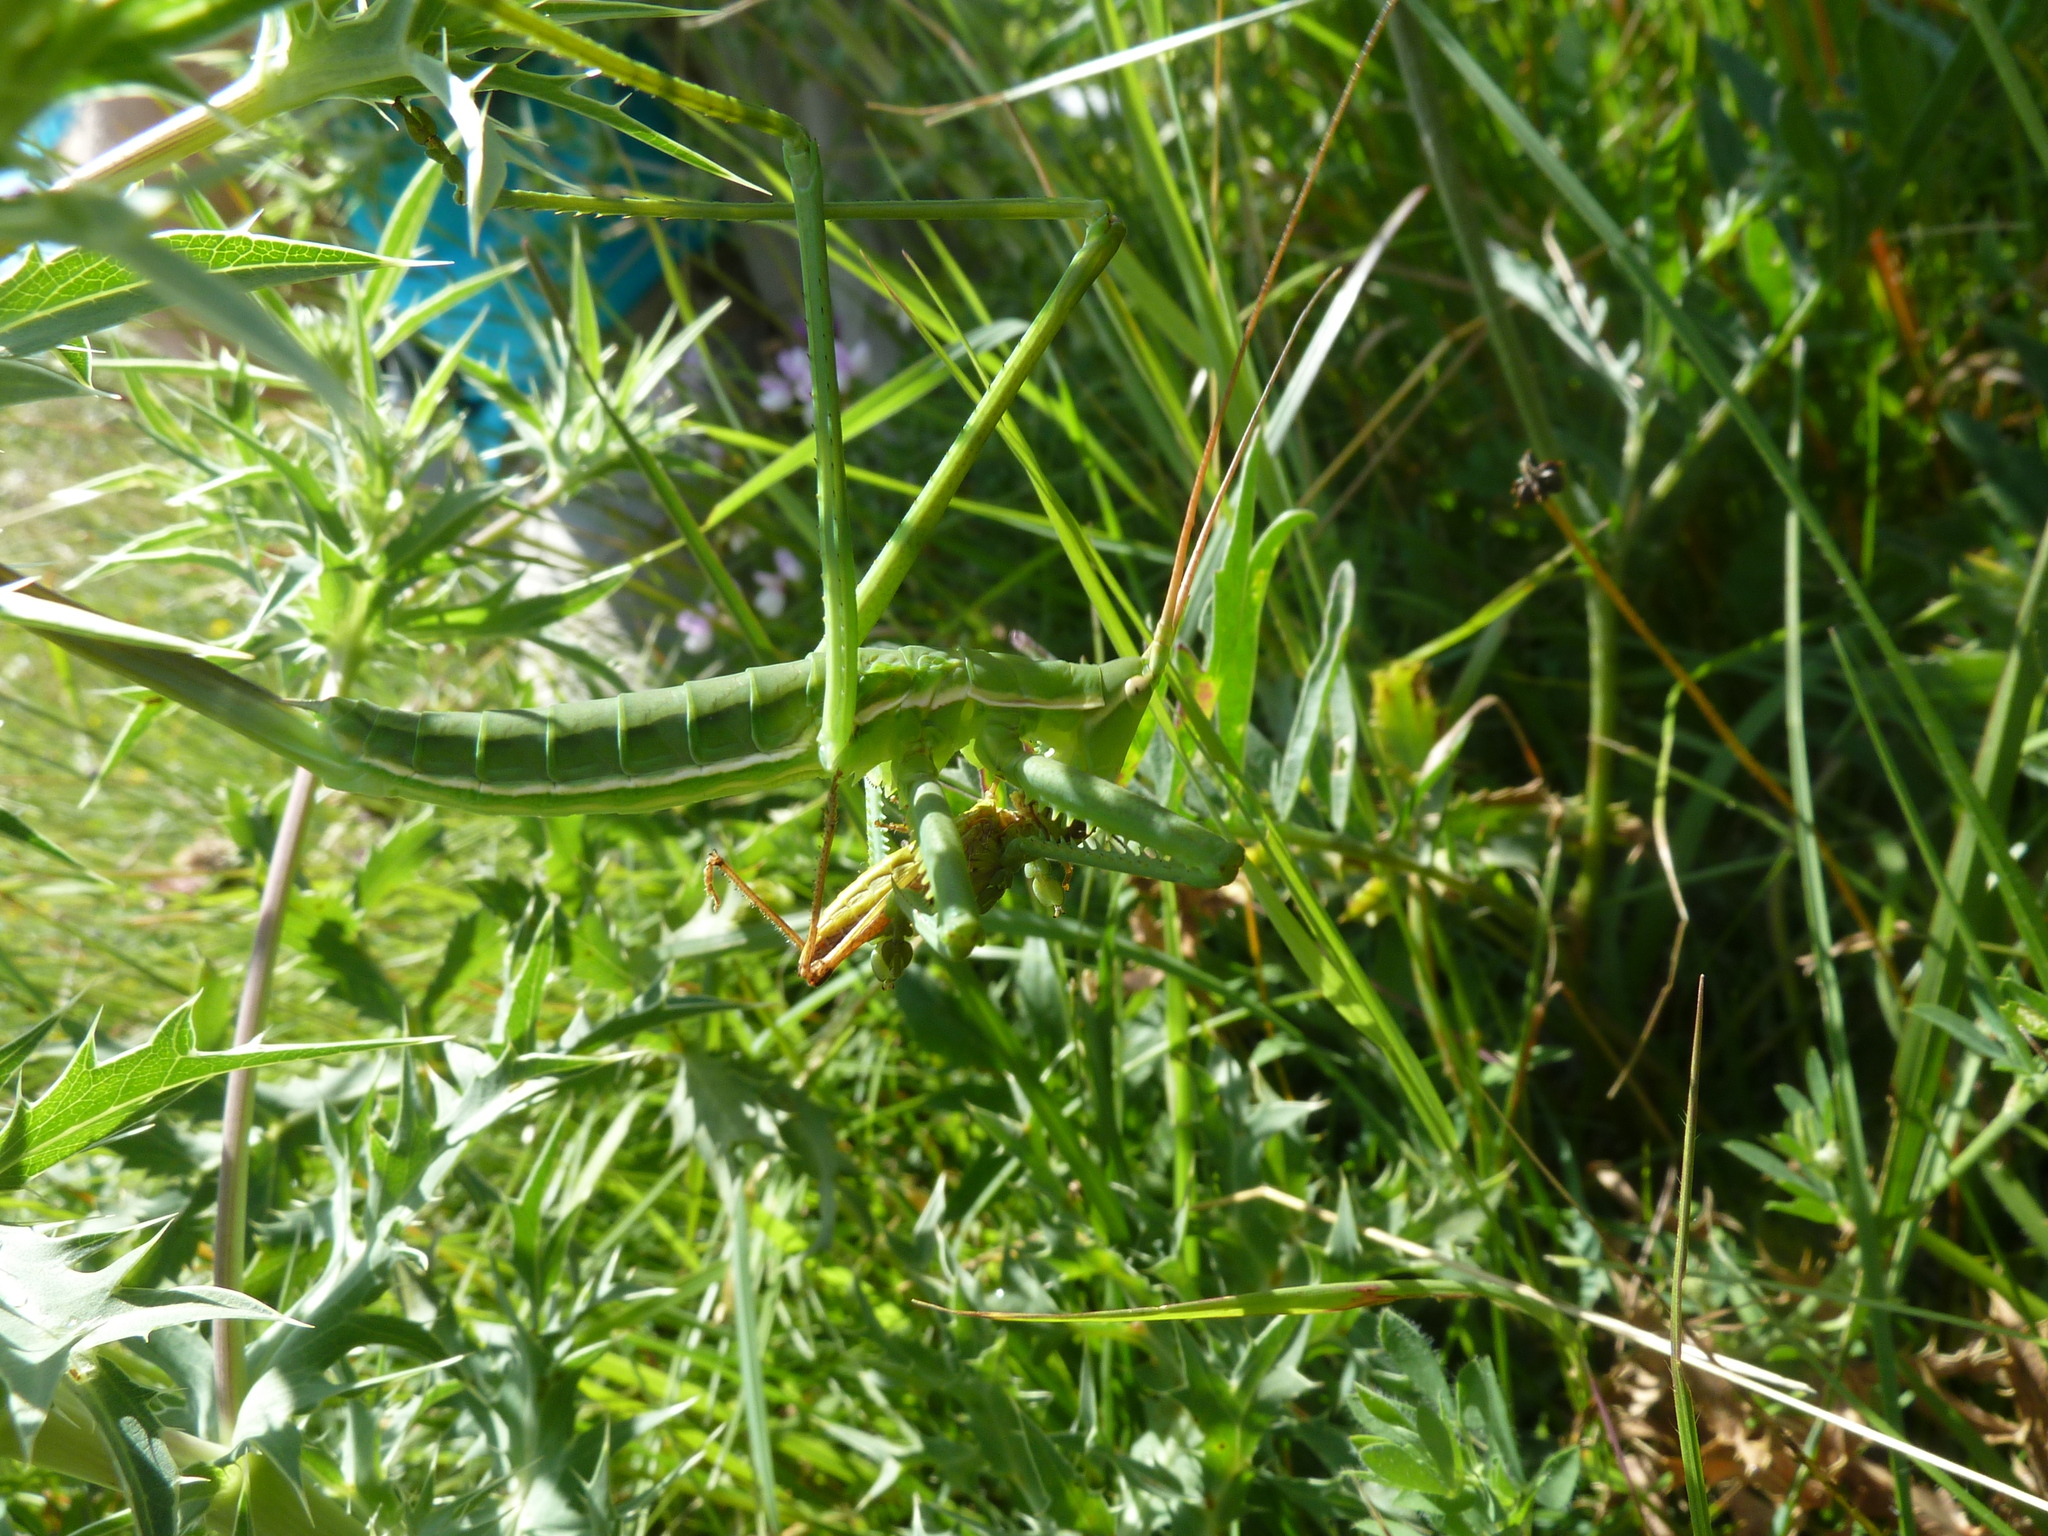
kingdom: Animalia
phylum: Arthropoda
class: Insecta
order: Orthoptera
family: Tettigoniidae
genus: Saga
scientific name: Saga pedo
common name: Common predatory bush-cricket
